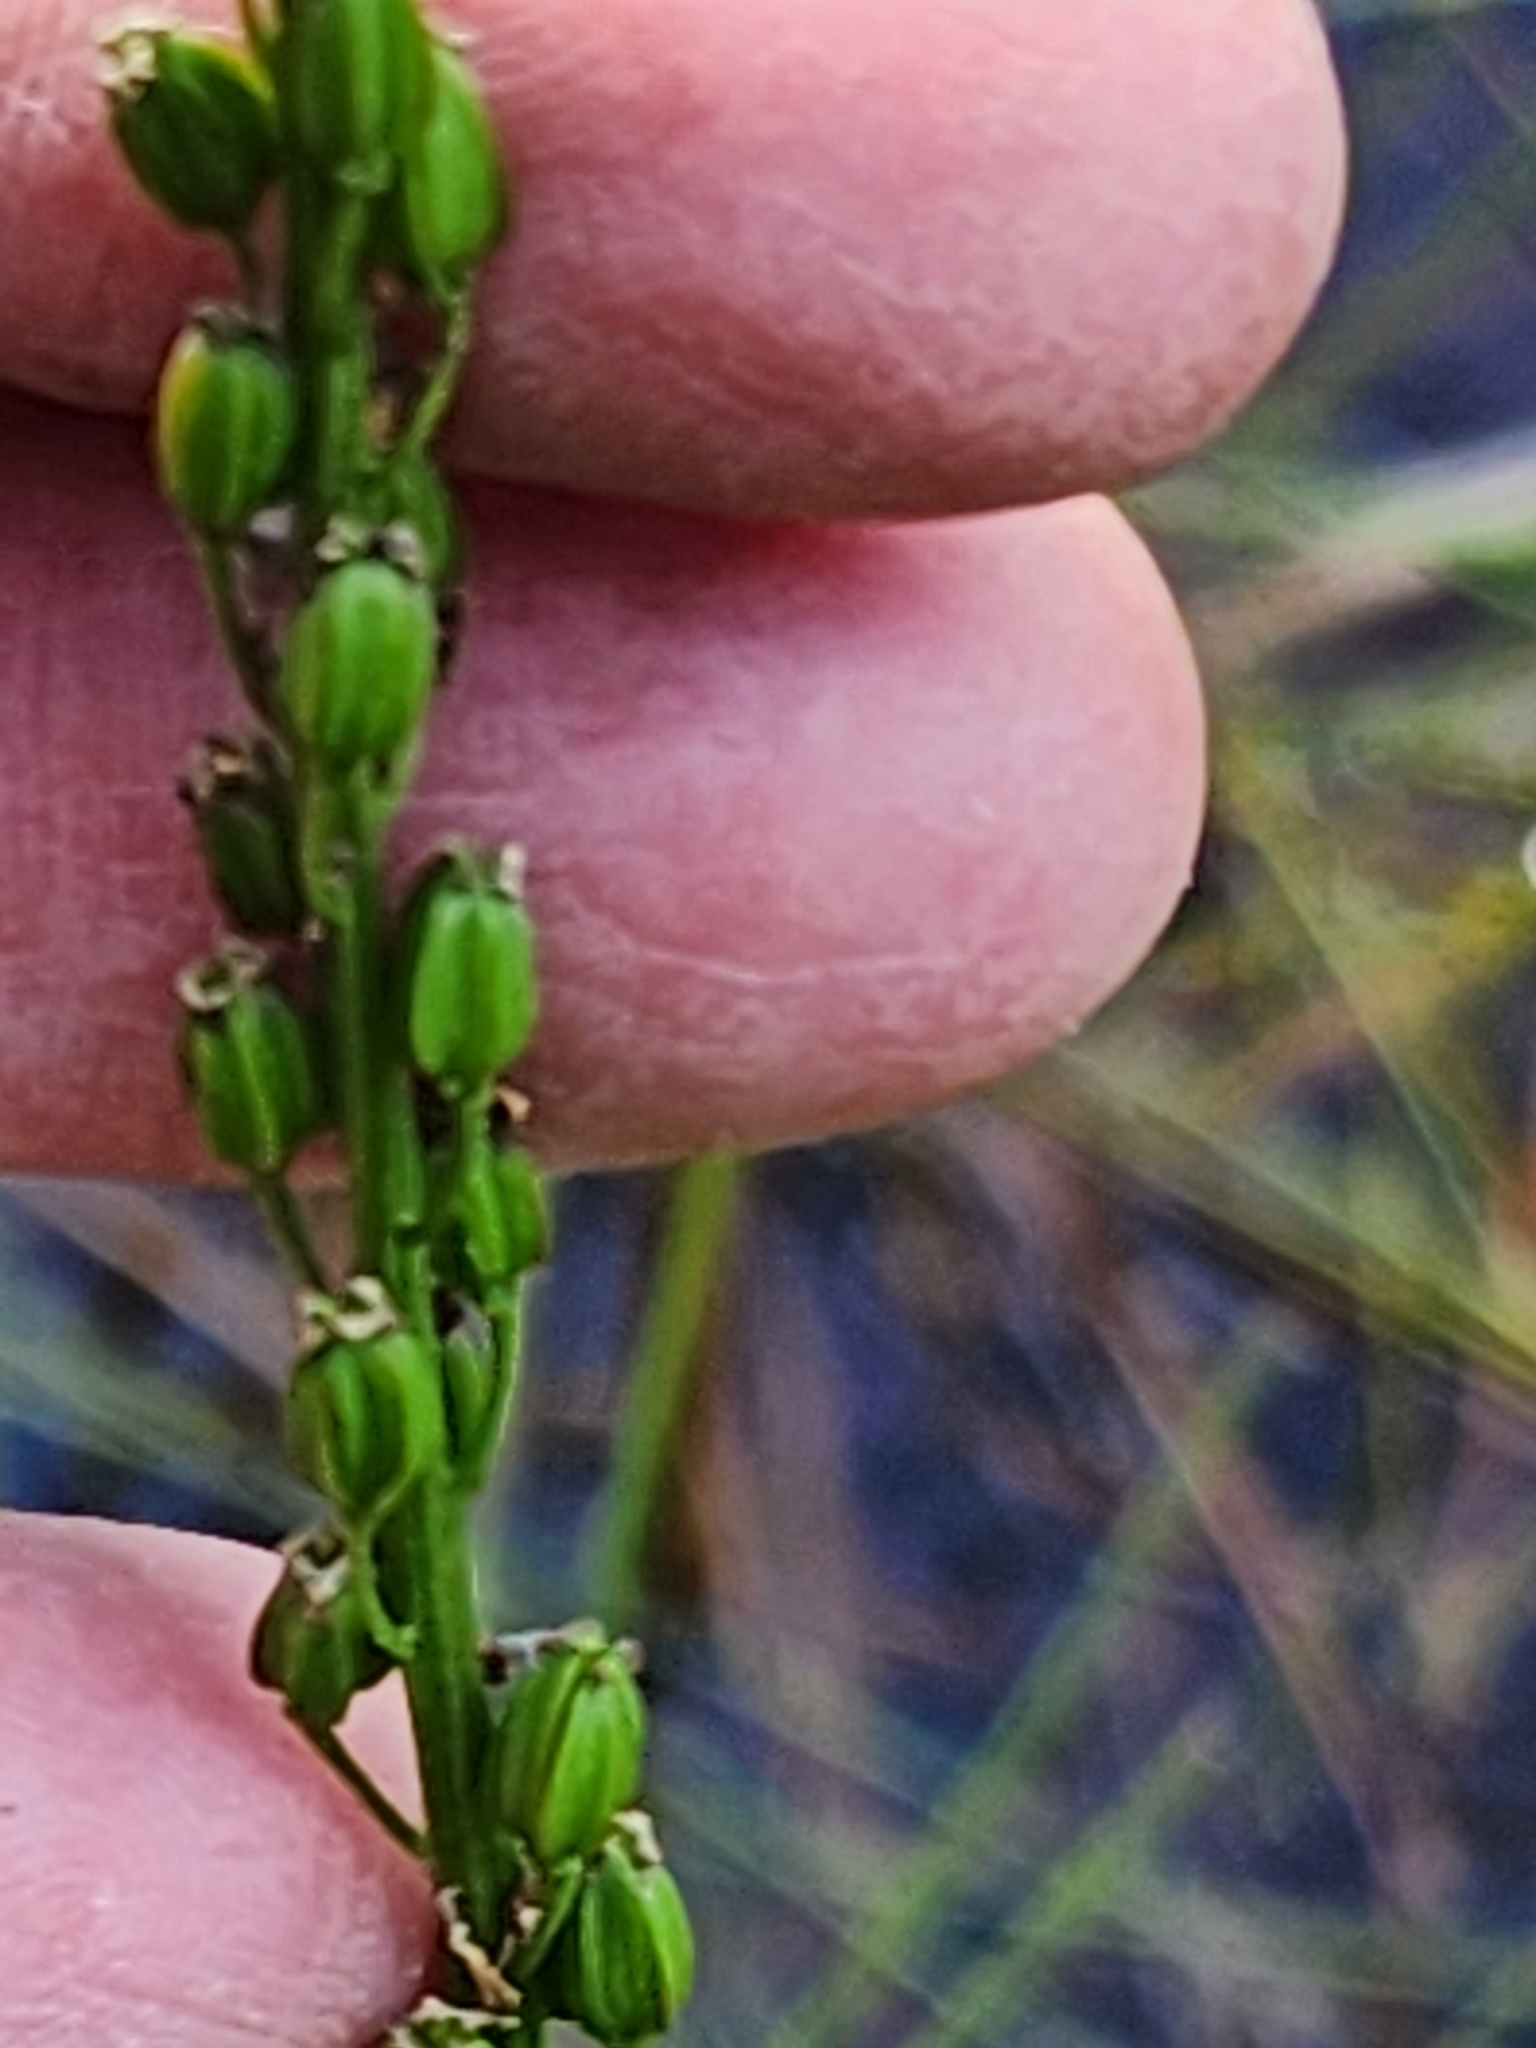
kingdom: Plantae
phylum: Tracheophyta
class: Liliopsida
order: Alismatales
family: Juncaginaceae
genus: Triglochin
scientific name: Triglochin maritima
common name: Sea arrowgrass
